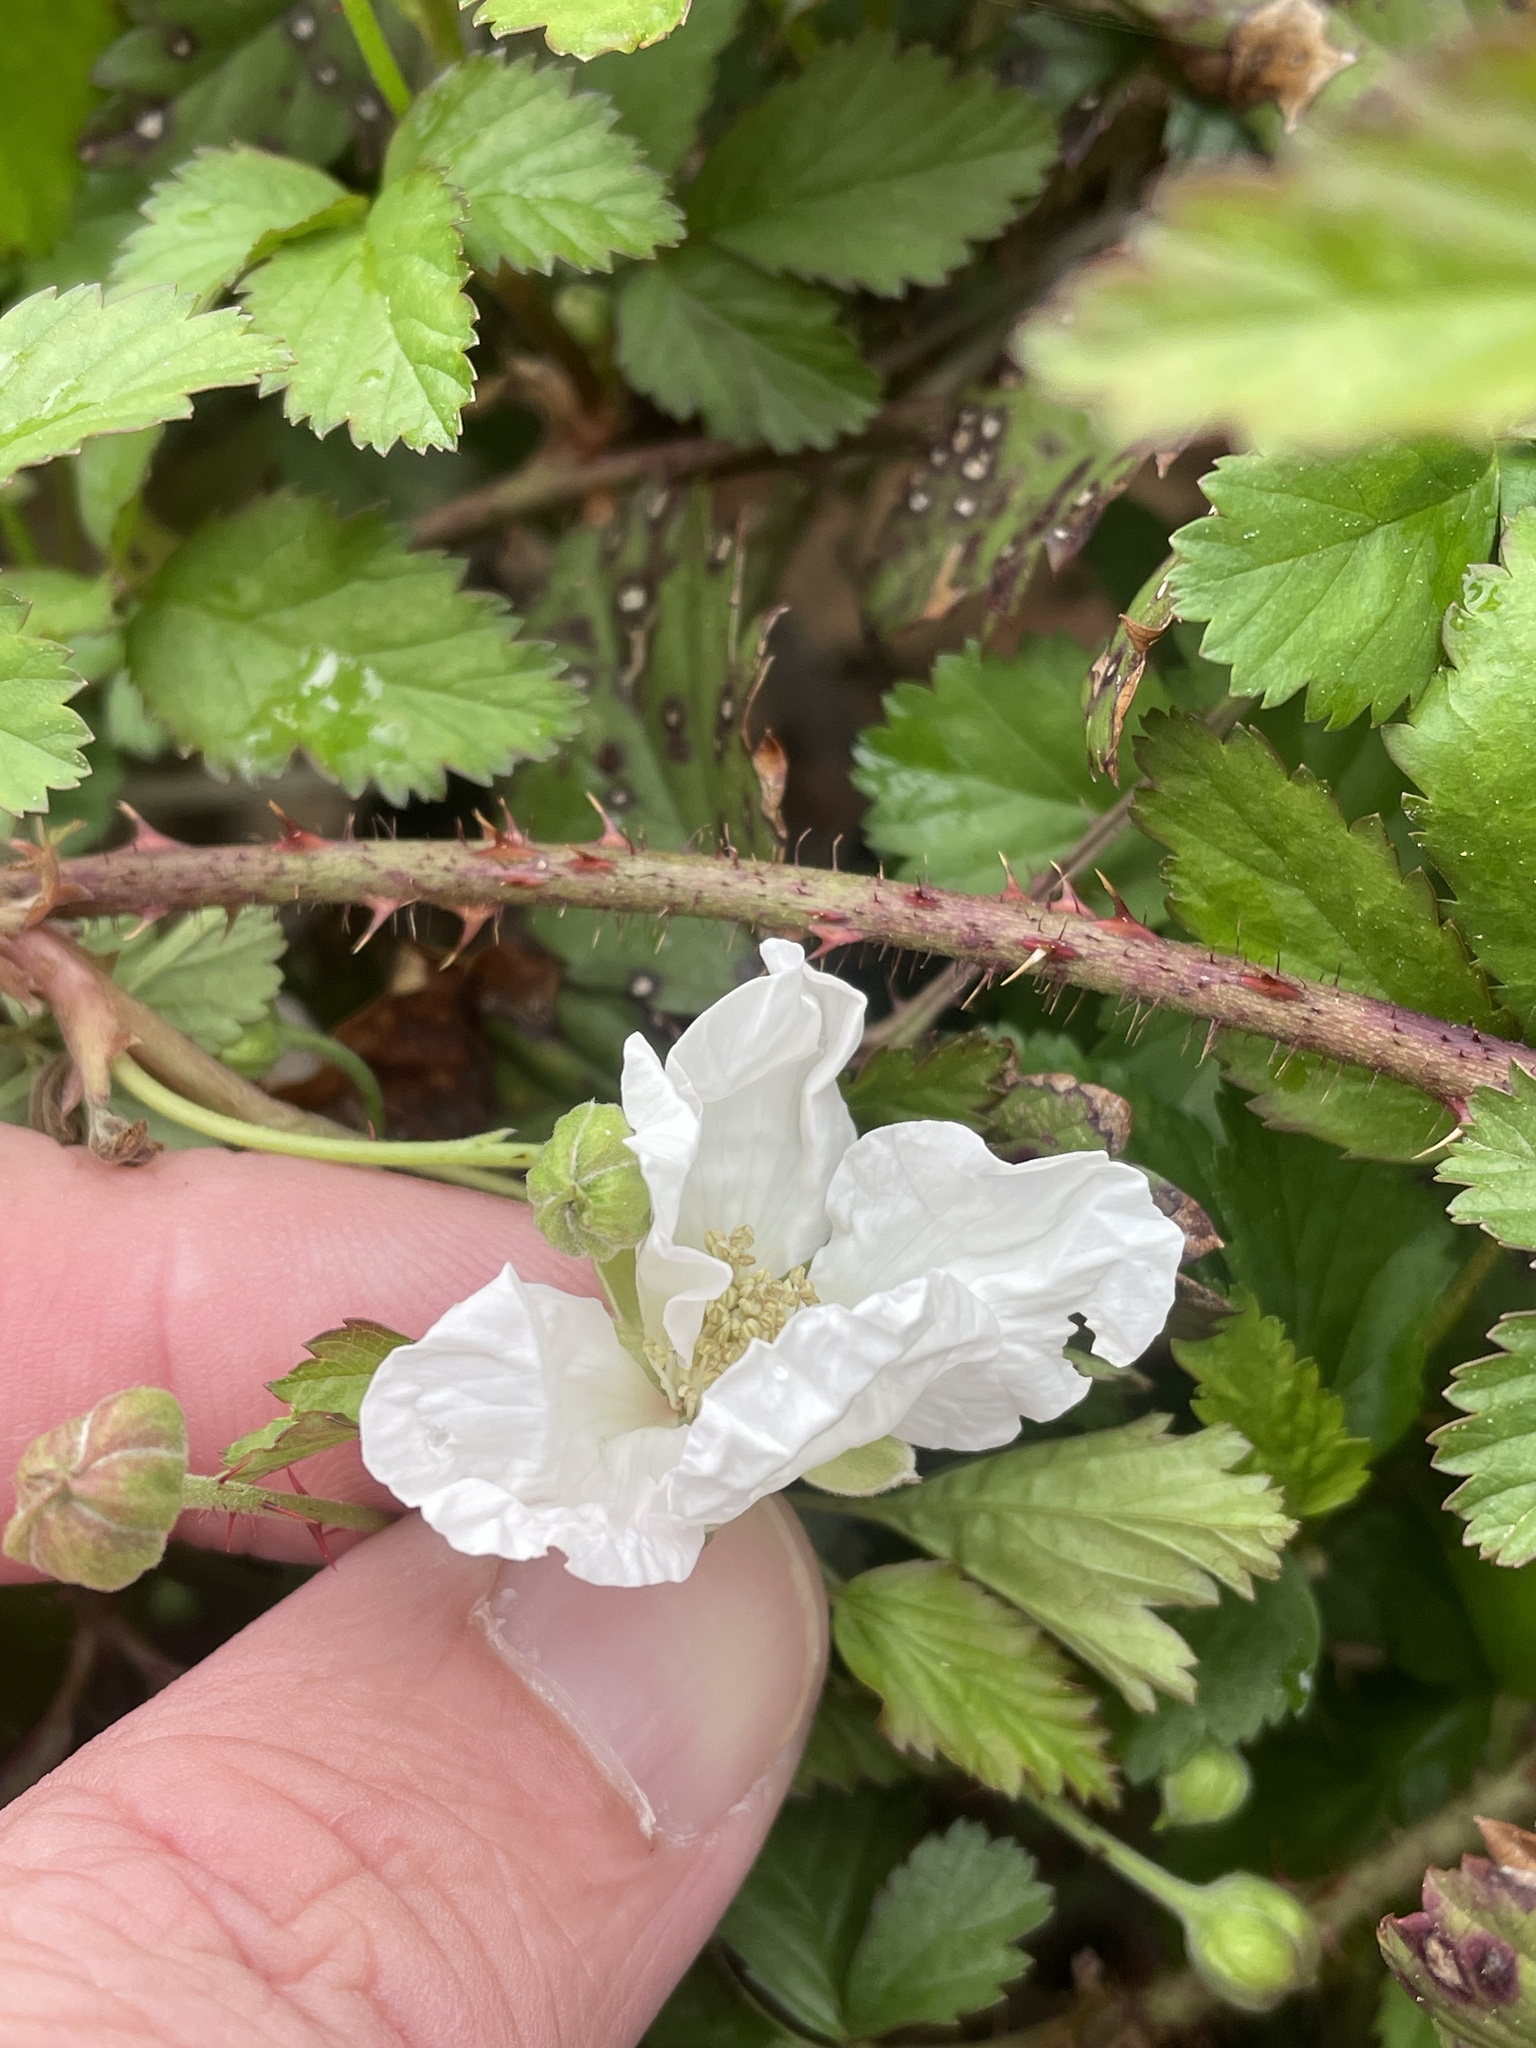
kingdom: Plantae
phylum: Tracheophyta
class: Magnoliopsida
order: Rosales
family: Rosaceae
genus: Rubus
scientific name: Rubus trivialis
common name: Southern dewberry
